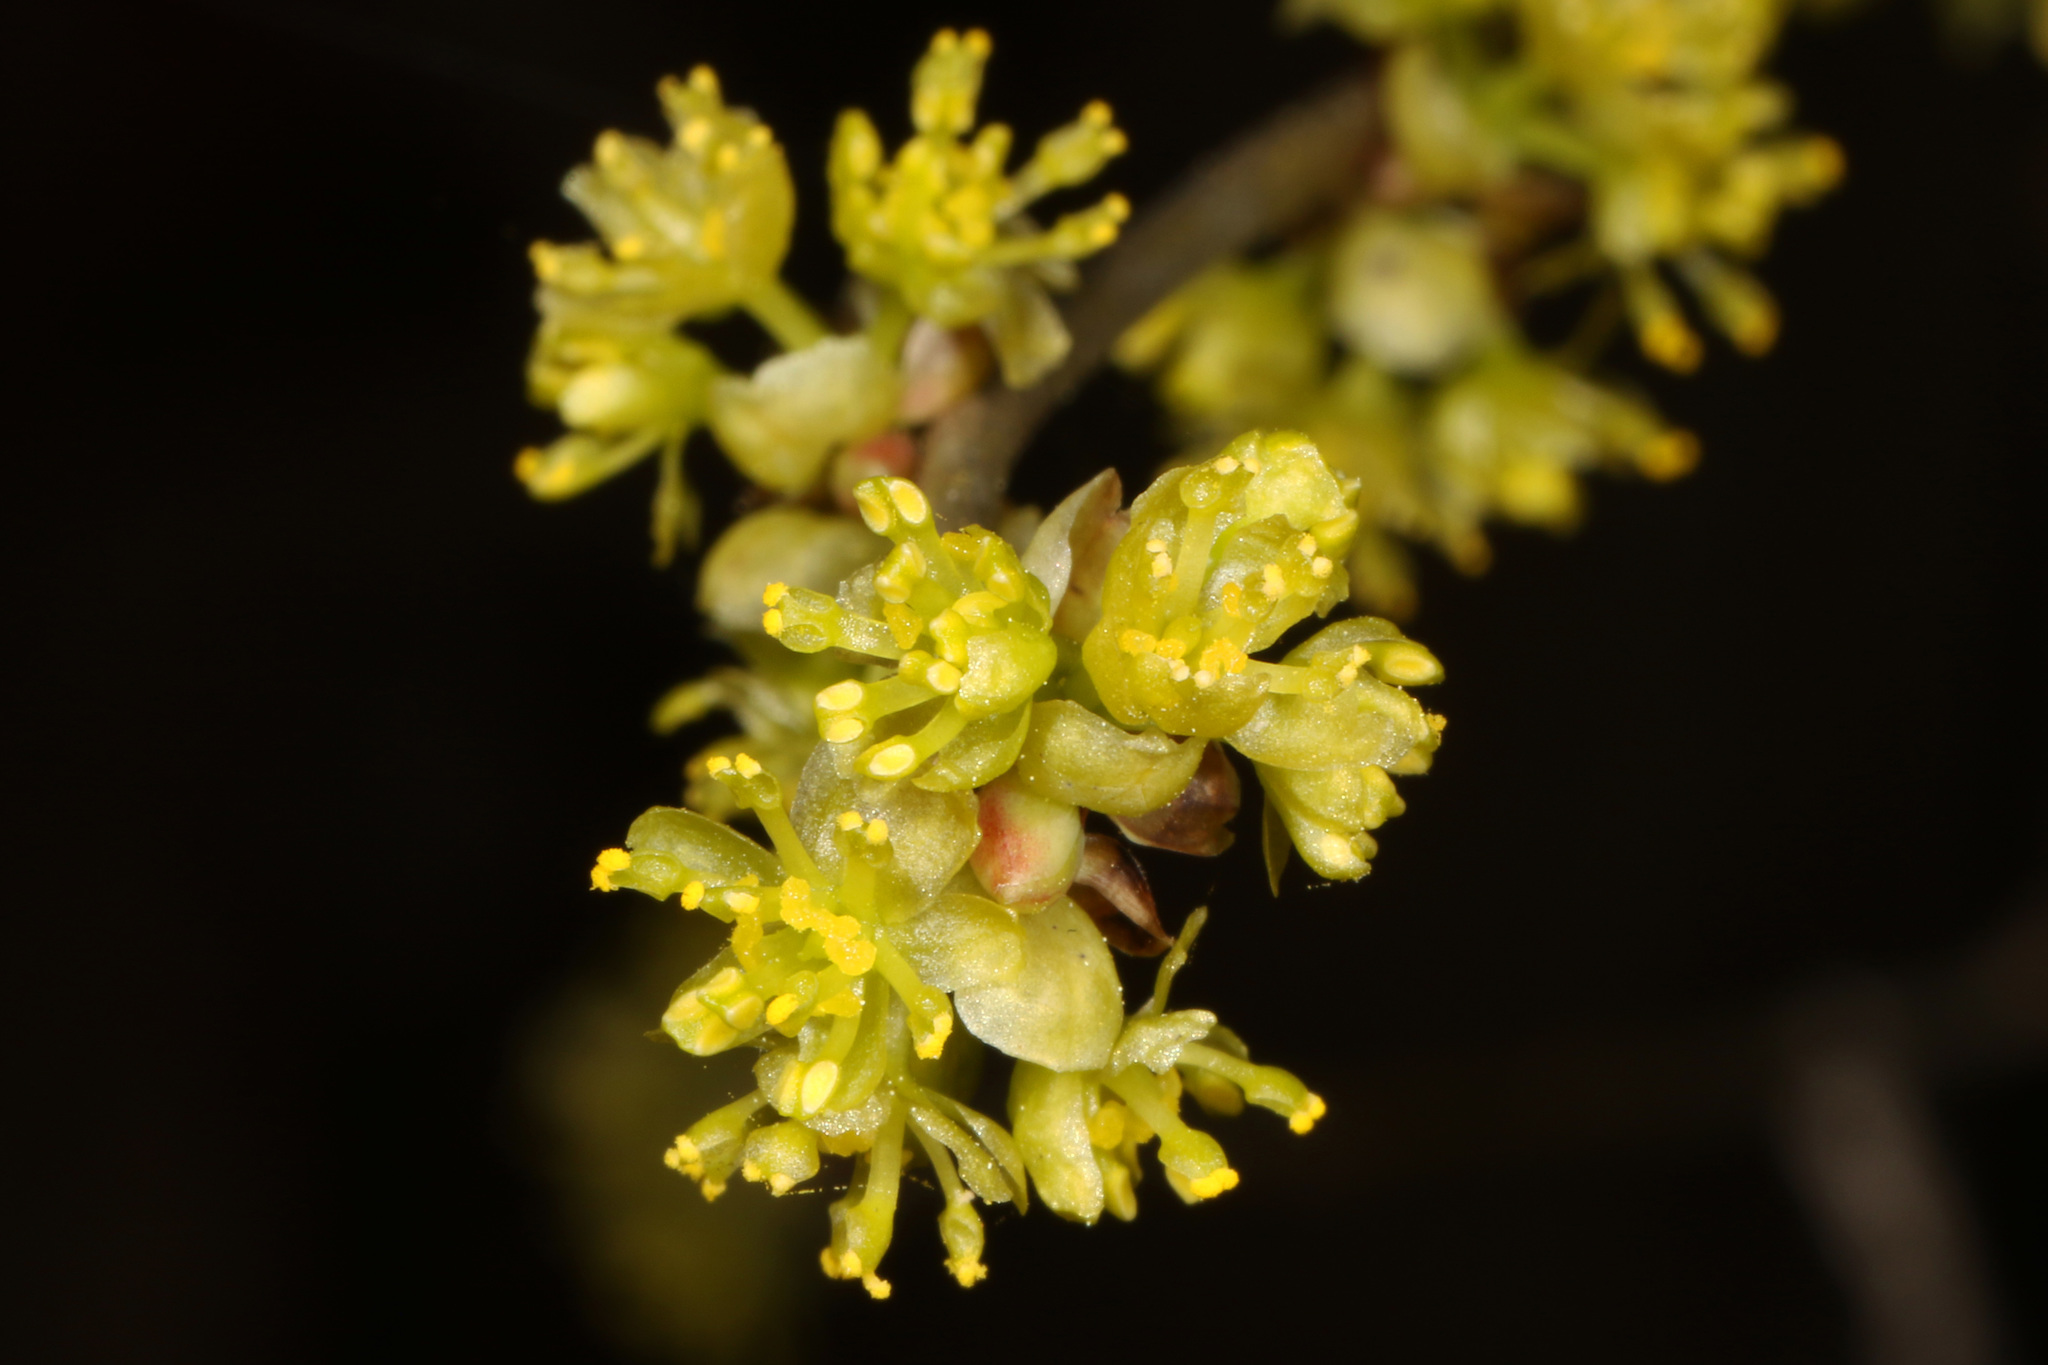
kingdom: Plantae
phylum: Tracheophyta
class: Magnoliopsida
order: Laurales
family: Lauraceae
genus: Lindera
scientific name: Lindera benzoin
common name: Spicebush
